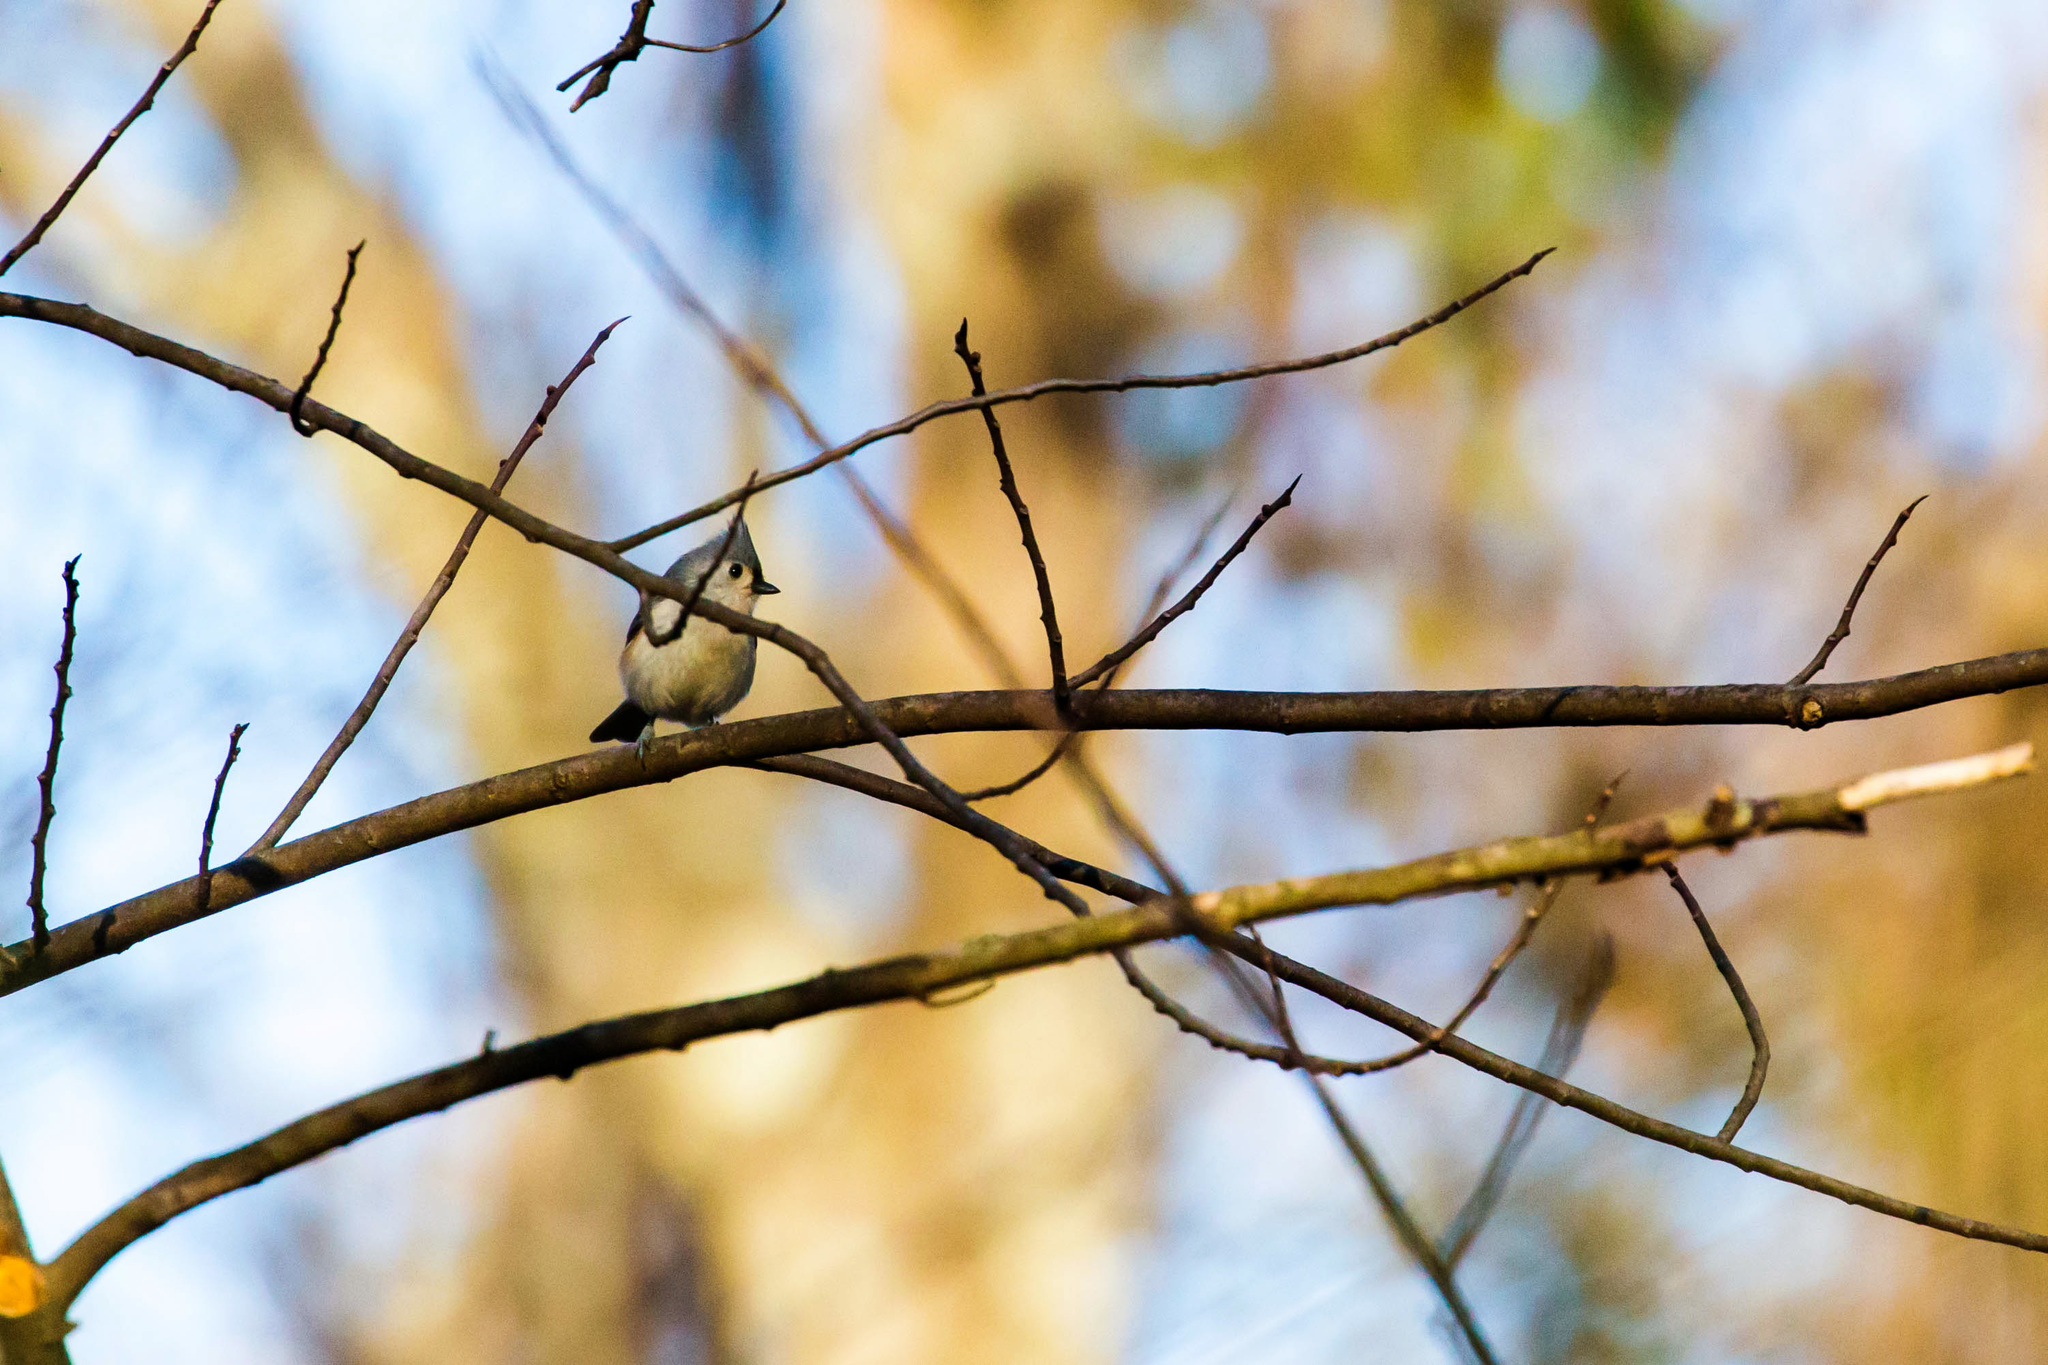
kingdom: Animalia
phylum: Chordata
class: Aves
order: Passeriformes
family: Paridae
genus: Baeolophus
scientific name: Baeolophus bicolor
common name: Tufted titmouse
